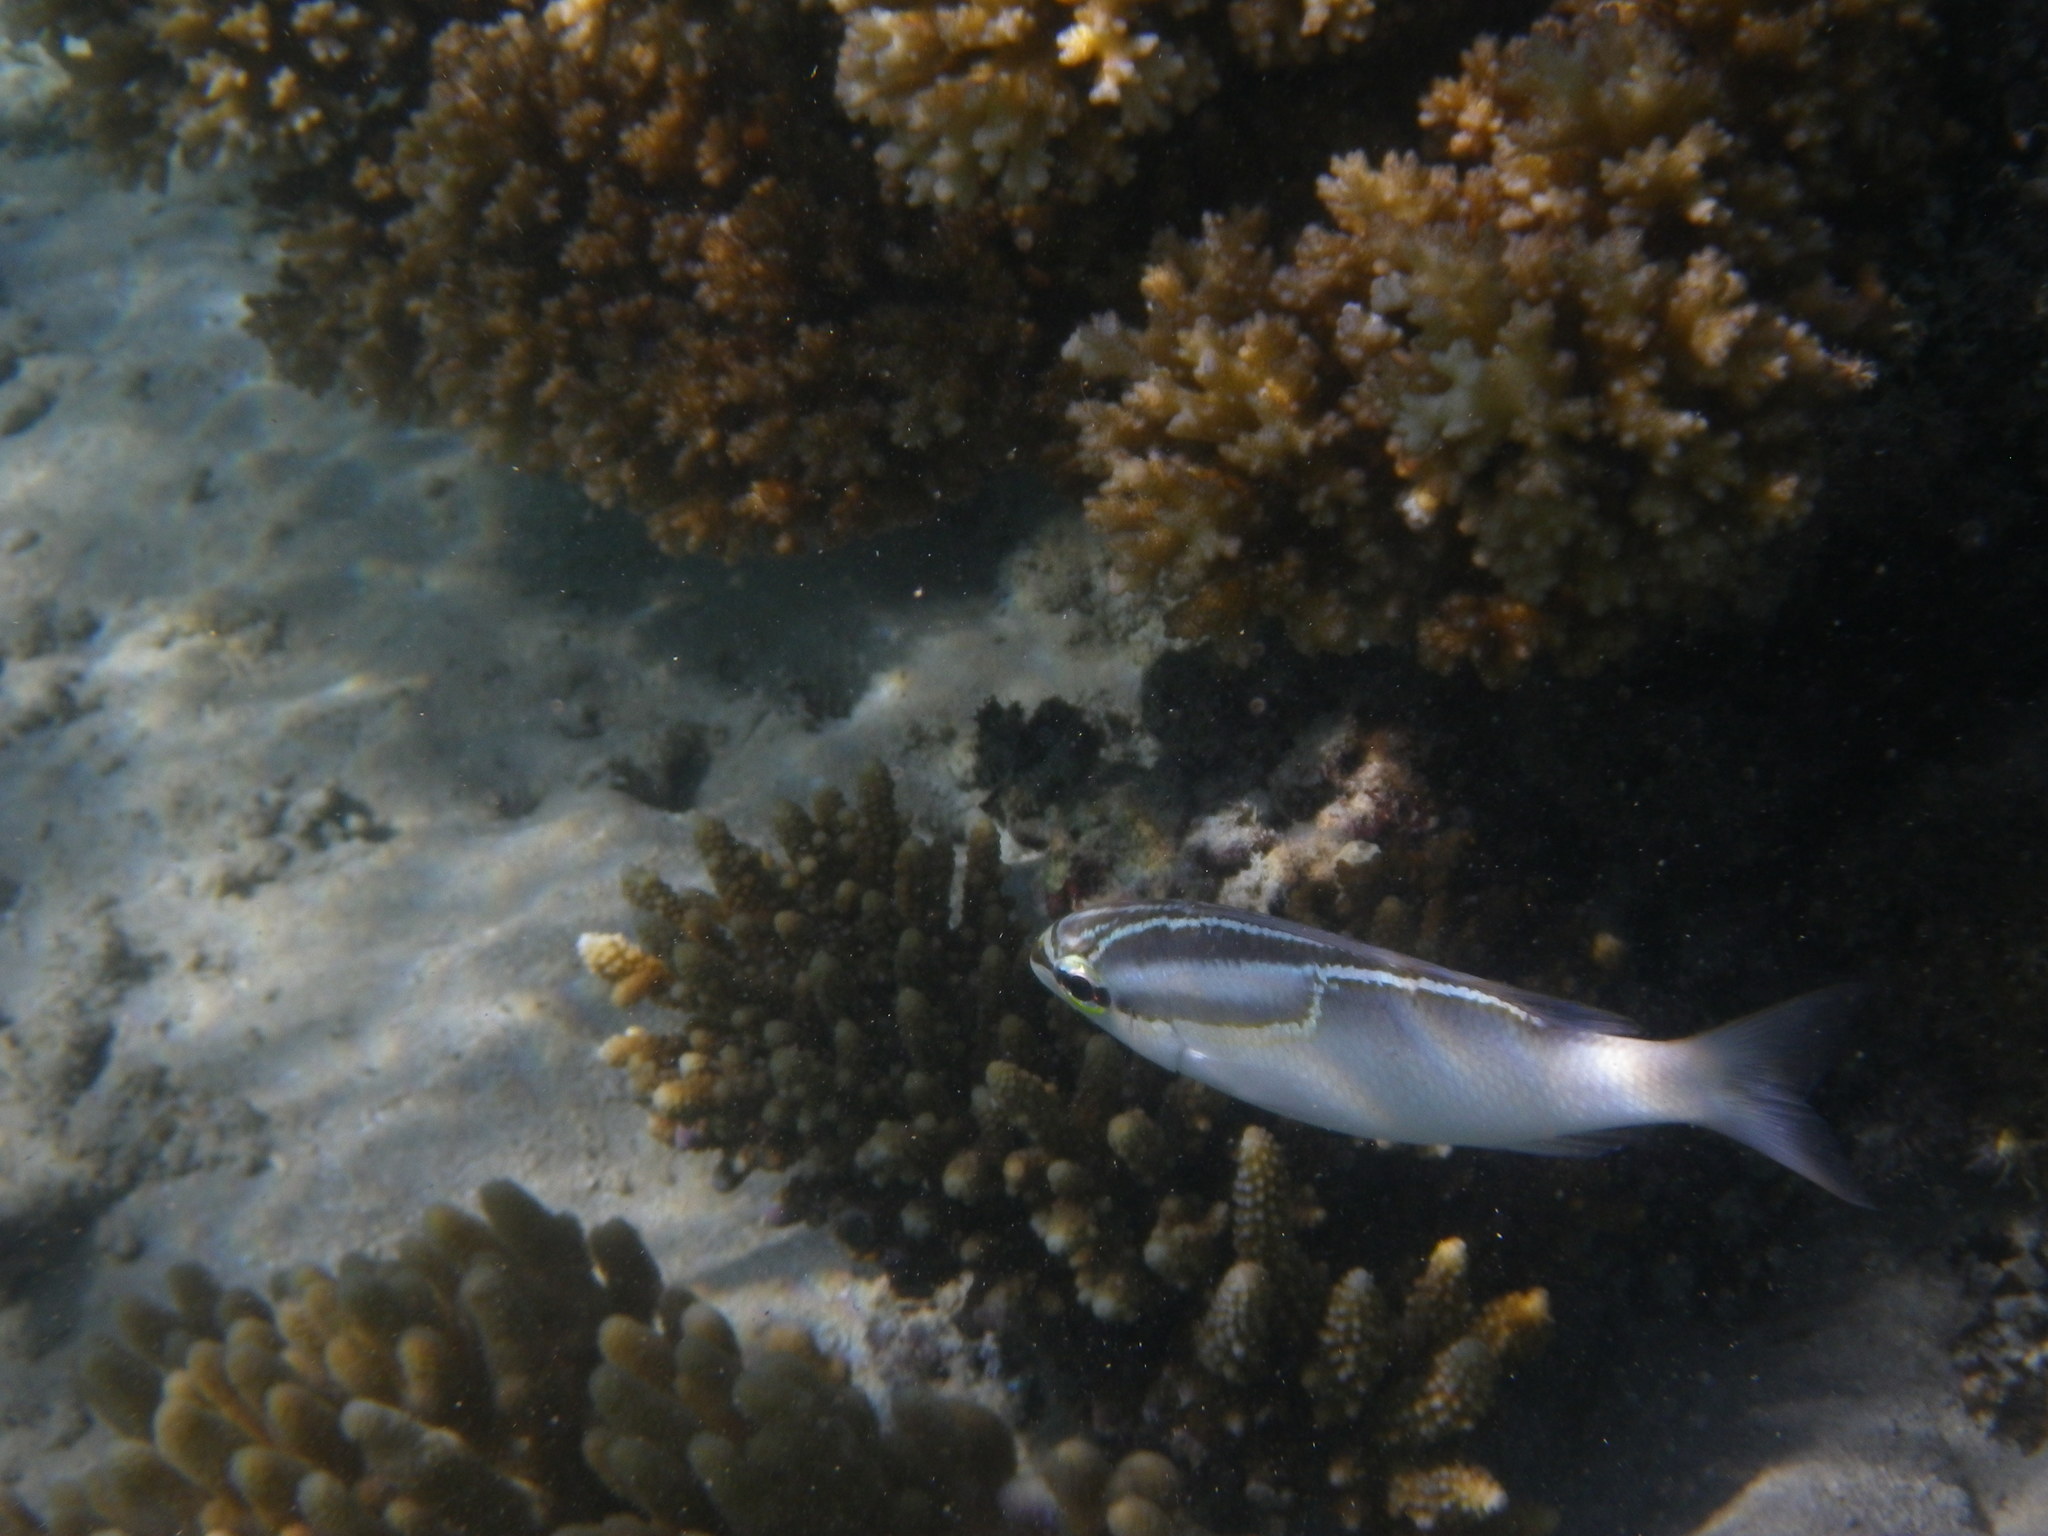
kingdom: Animalia
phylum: Chordata
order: Perciformes
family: Nemipteridae
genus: Scolopsis
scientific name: Scolopsis trilineata
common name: Three-lined monocle bream
